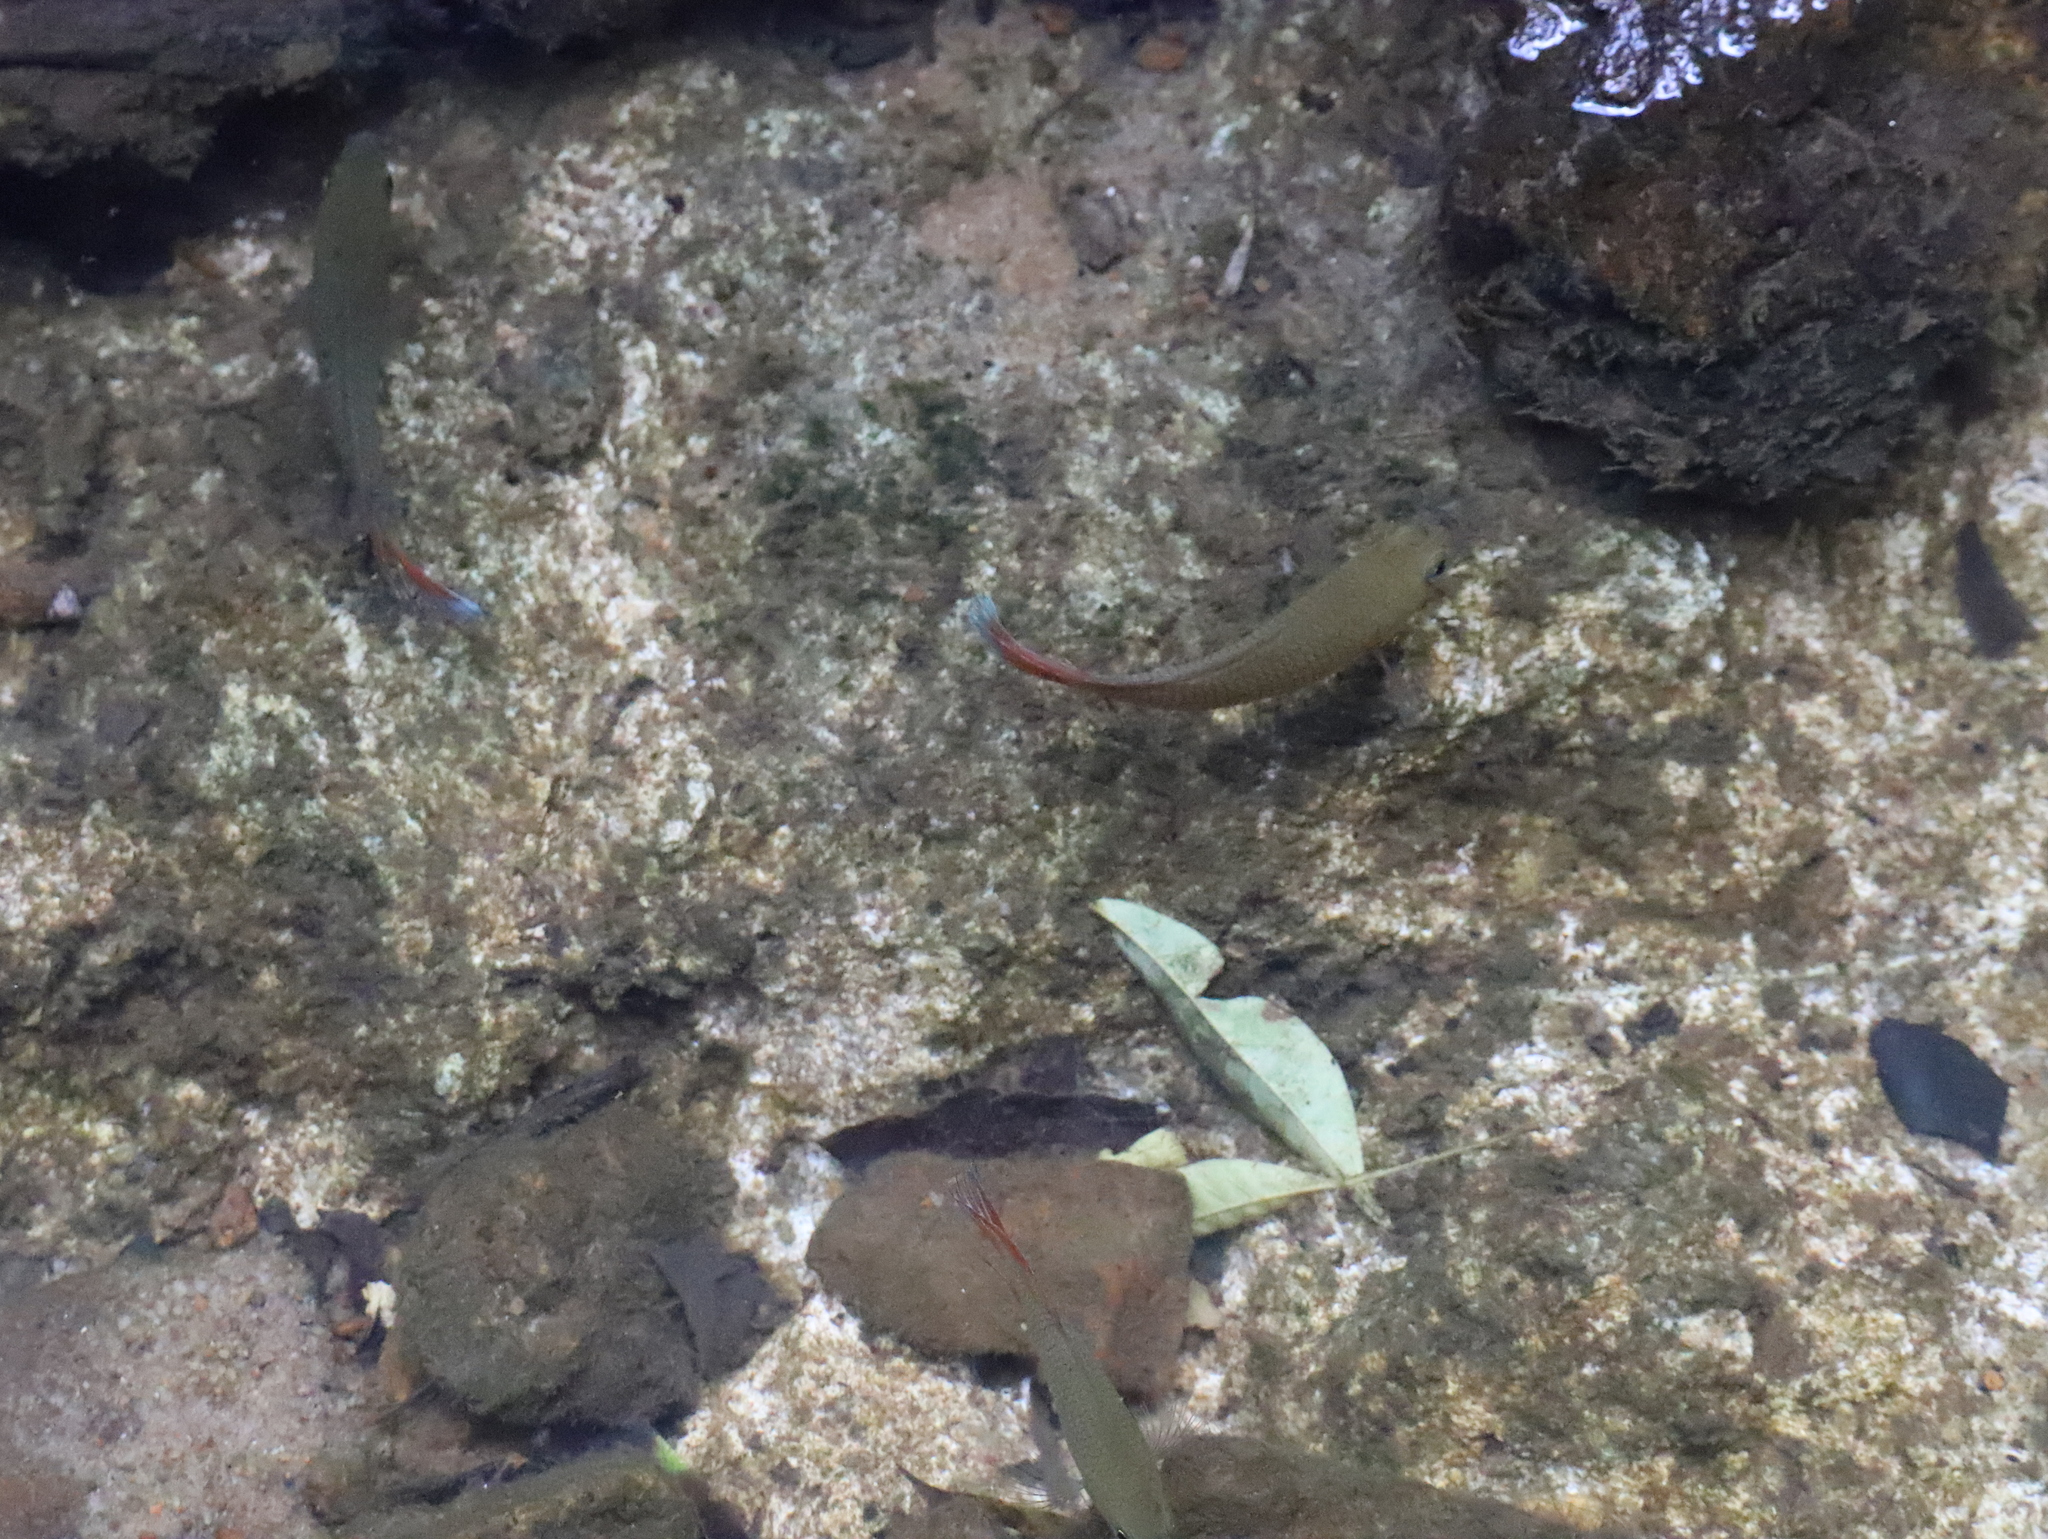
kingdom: Animalia
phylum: Chordata
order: Perciformes
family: Osphronemidae
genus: Belontia
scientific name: Belontia signata
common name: Combtail
